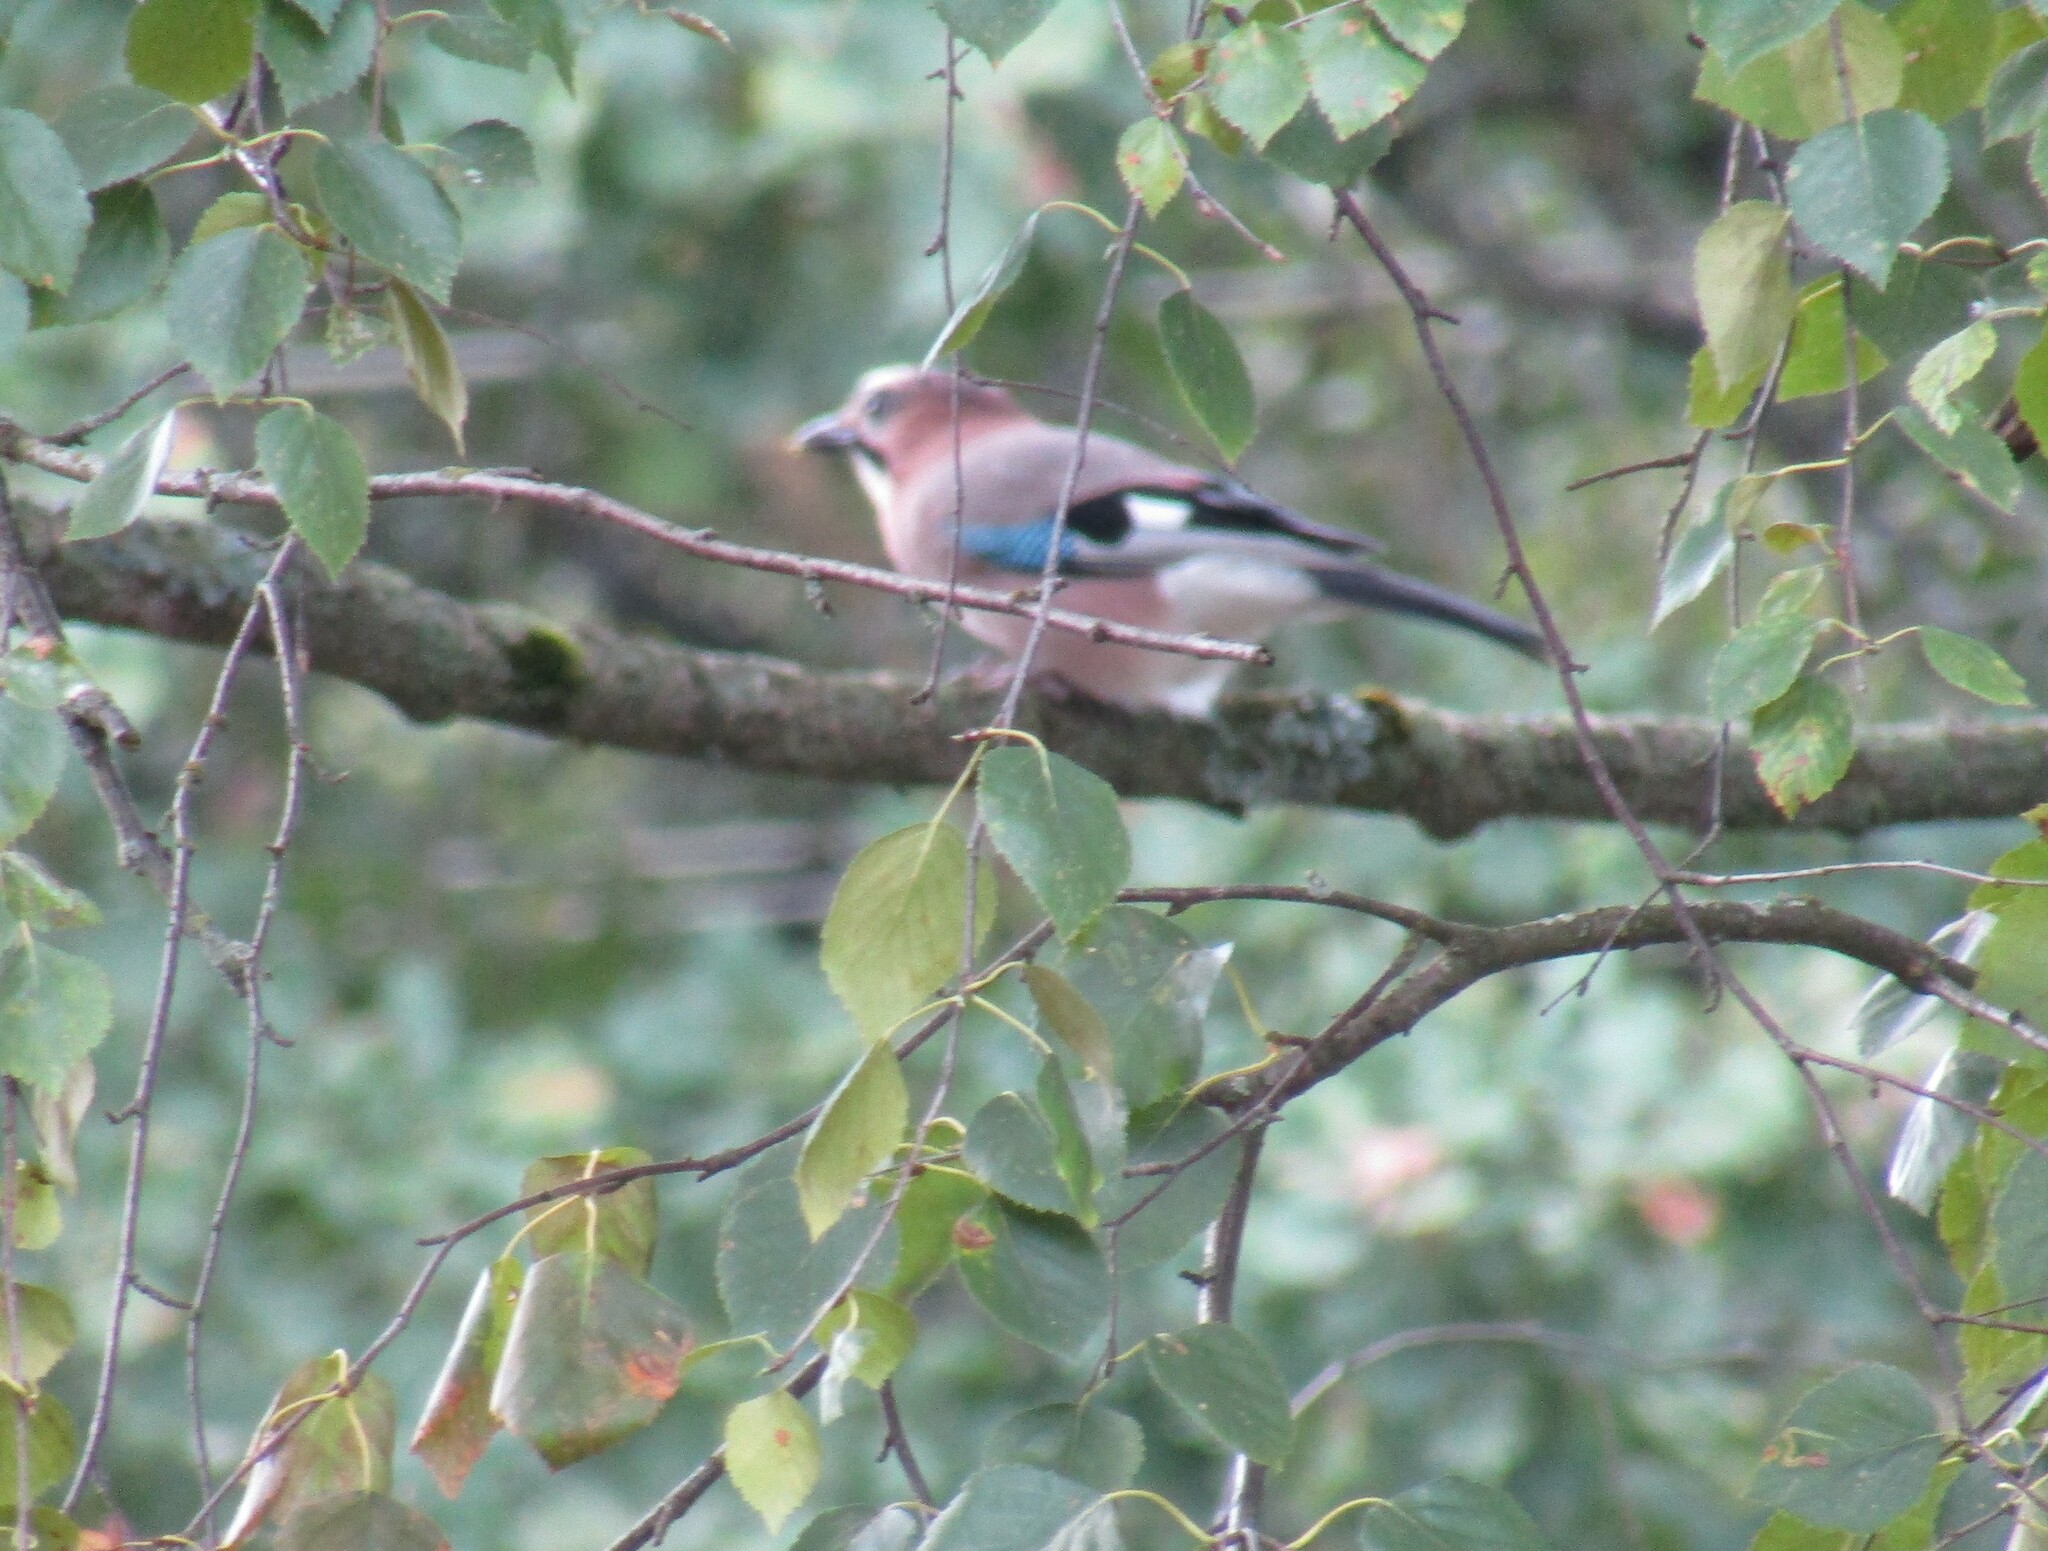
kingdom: Animalia
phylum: Chordata
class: Aves
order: Passeriformes
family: Corvidae
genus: Garrulus
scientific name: Garrulus glandarius
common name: Eurasian jay
